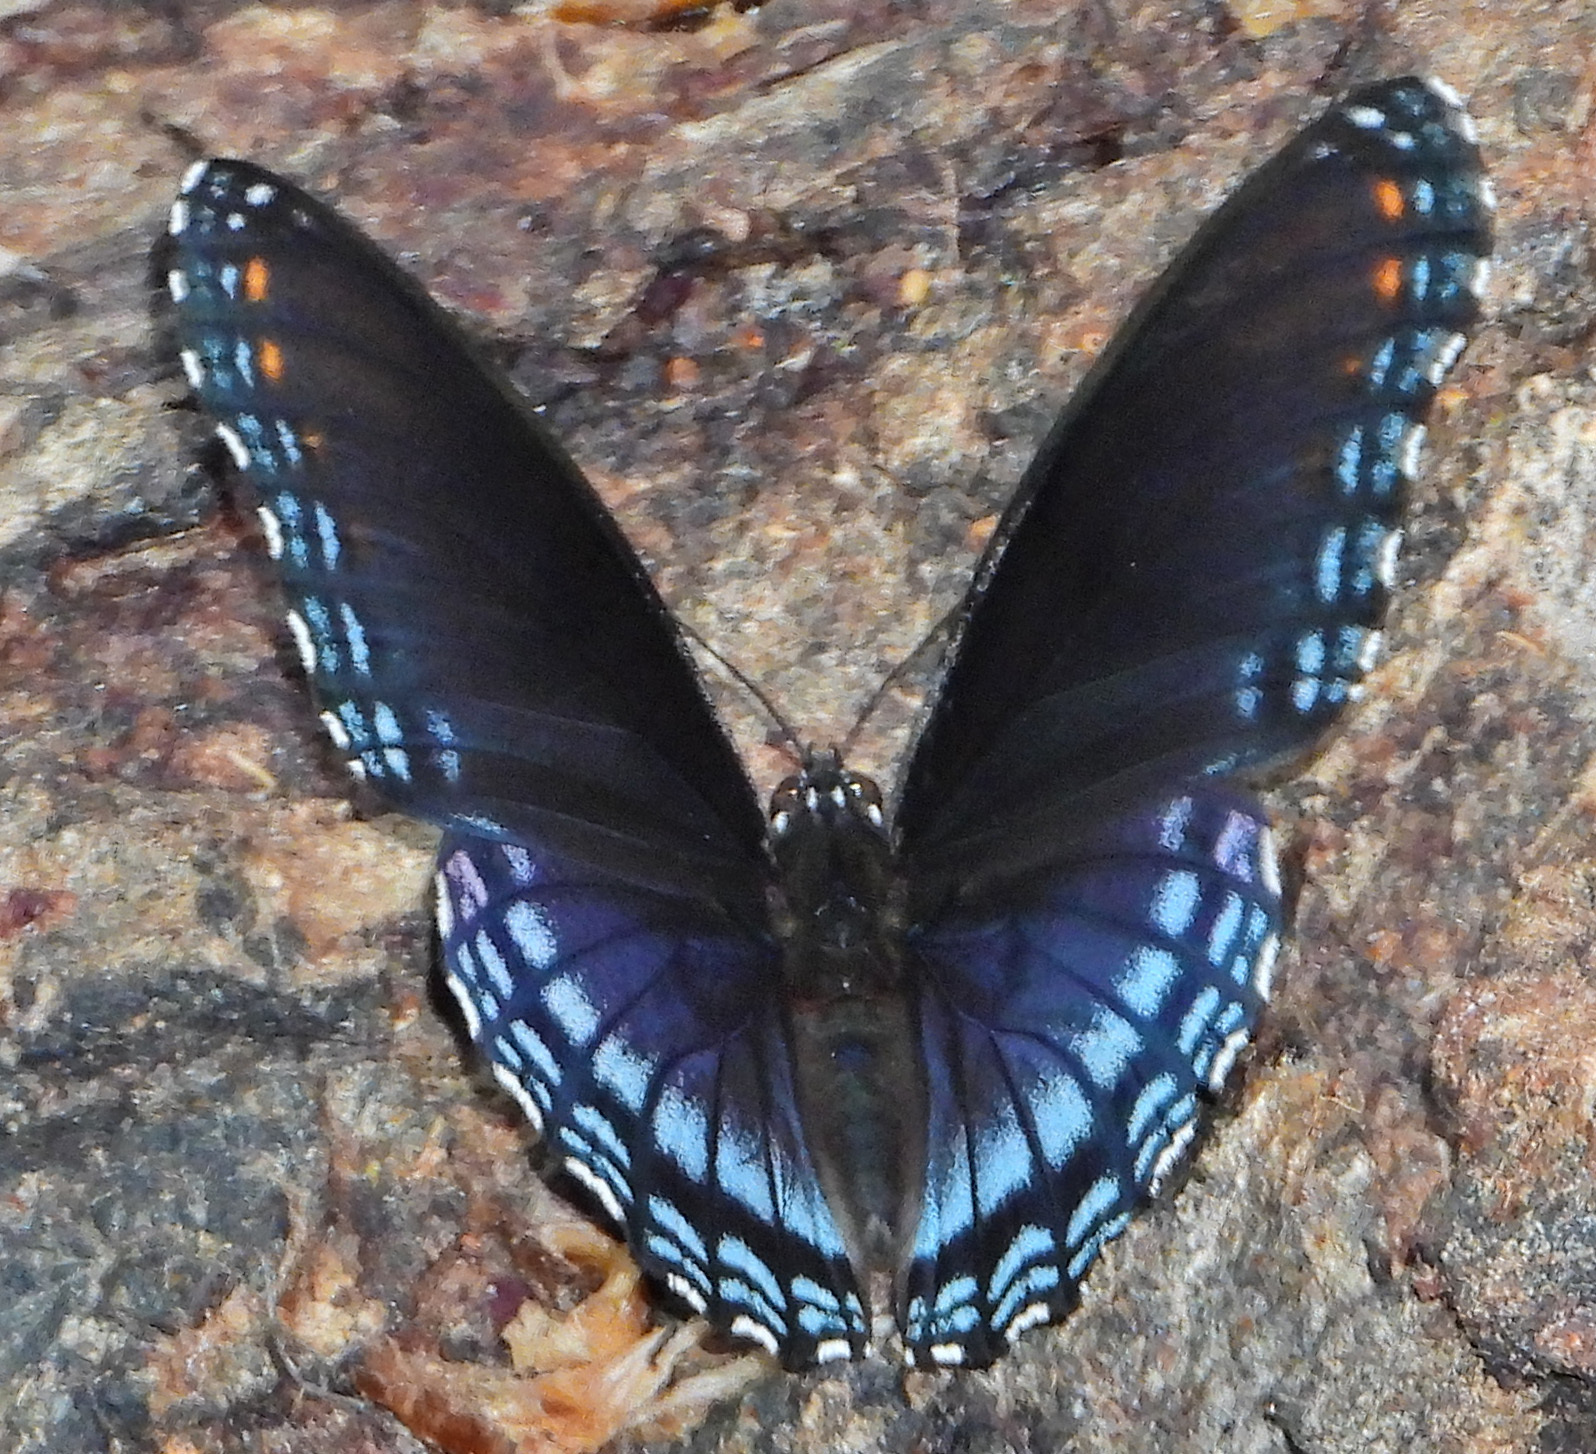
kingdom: Animalia
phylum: Arthropoda
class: Insecta
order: Lepidoptera
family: Nymphalidae
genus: Limenitis
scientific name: Limenitis astyanax
